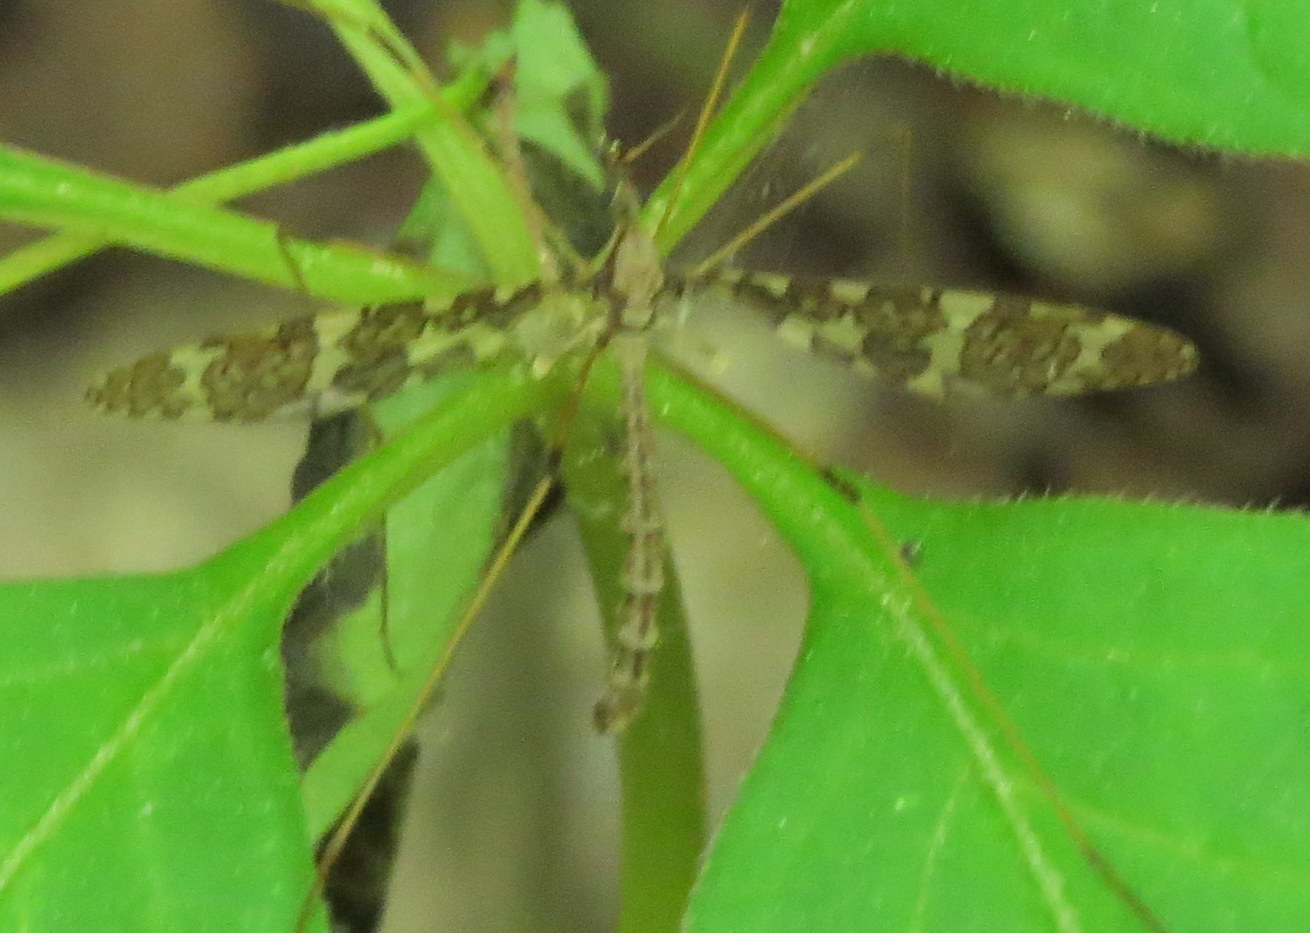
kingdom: Animalia
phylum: Arthropoda
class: Insecta
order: Diptera
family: Limoniidae
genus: Epiphragma
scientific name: Epiphragma fasciapenne
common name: Band-winged crane fly
